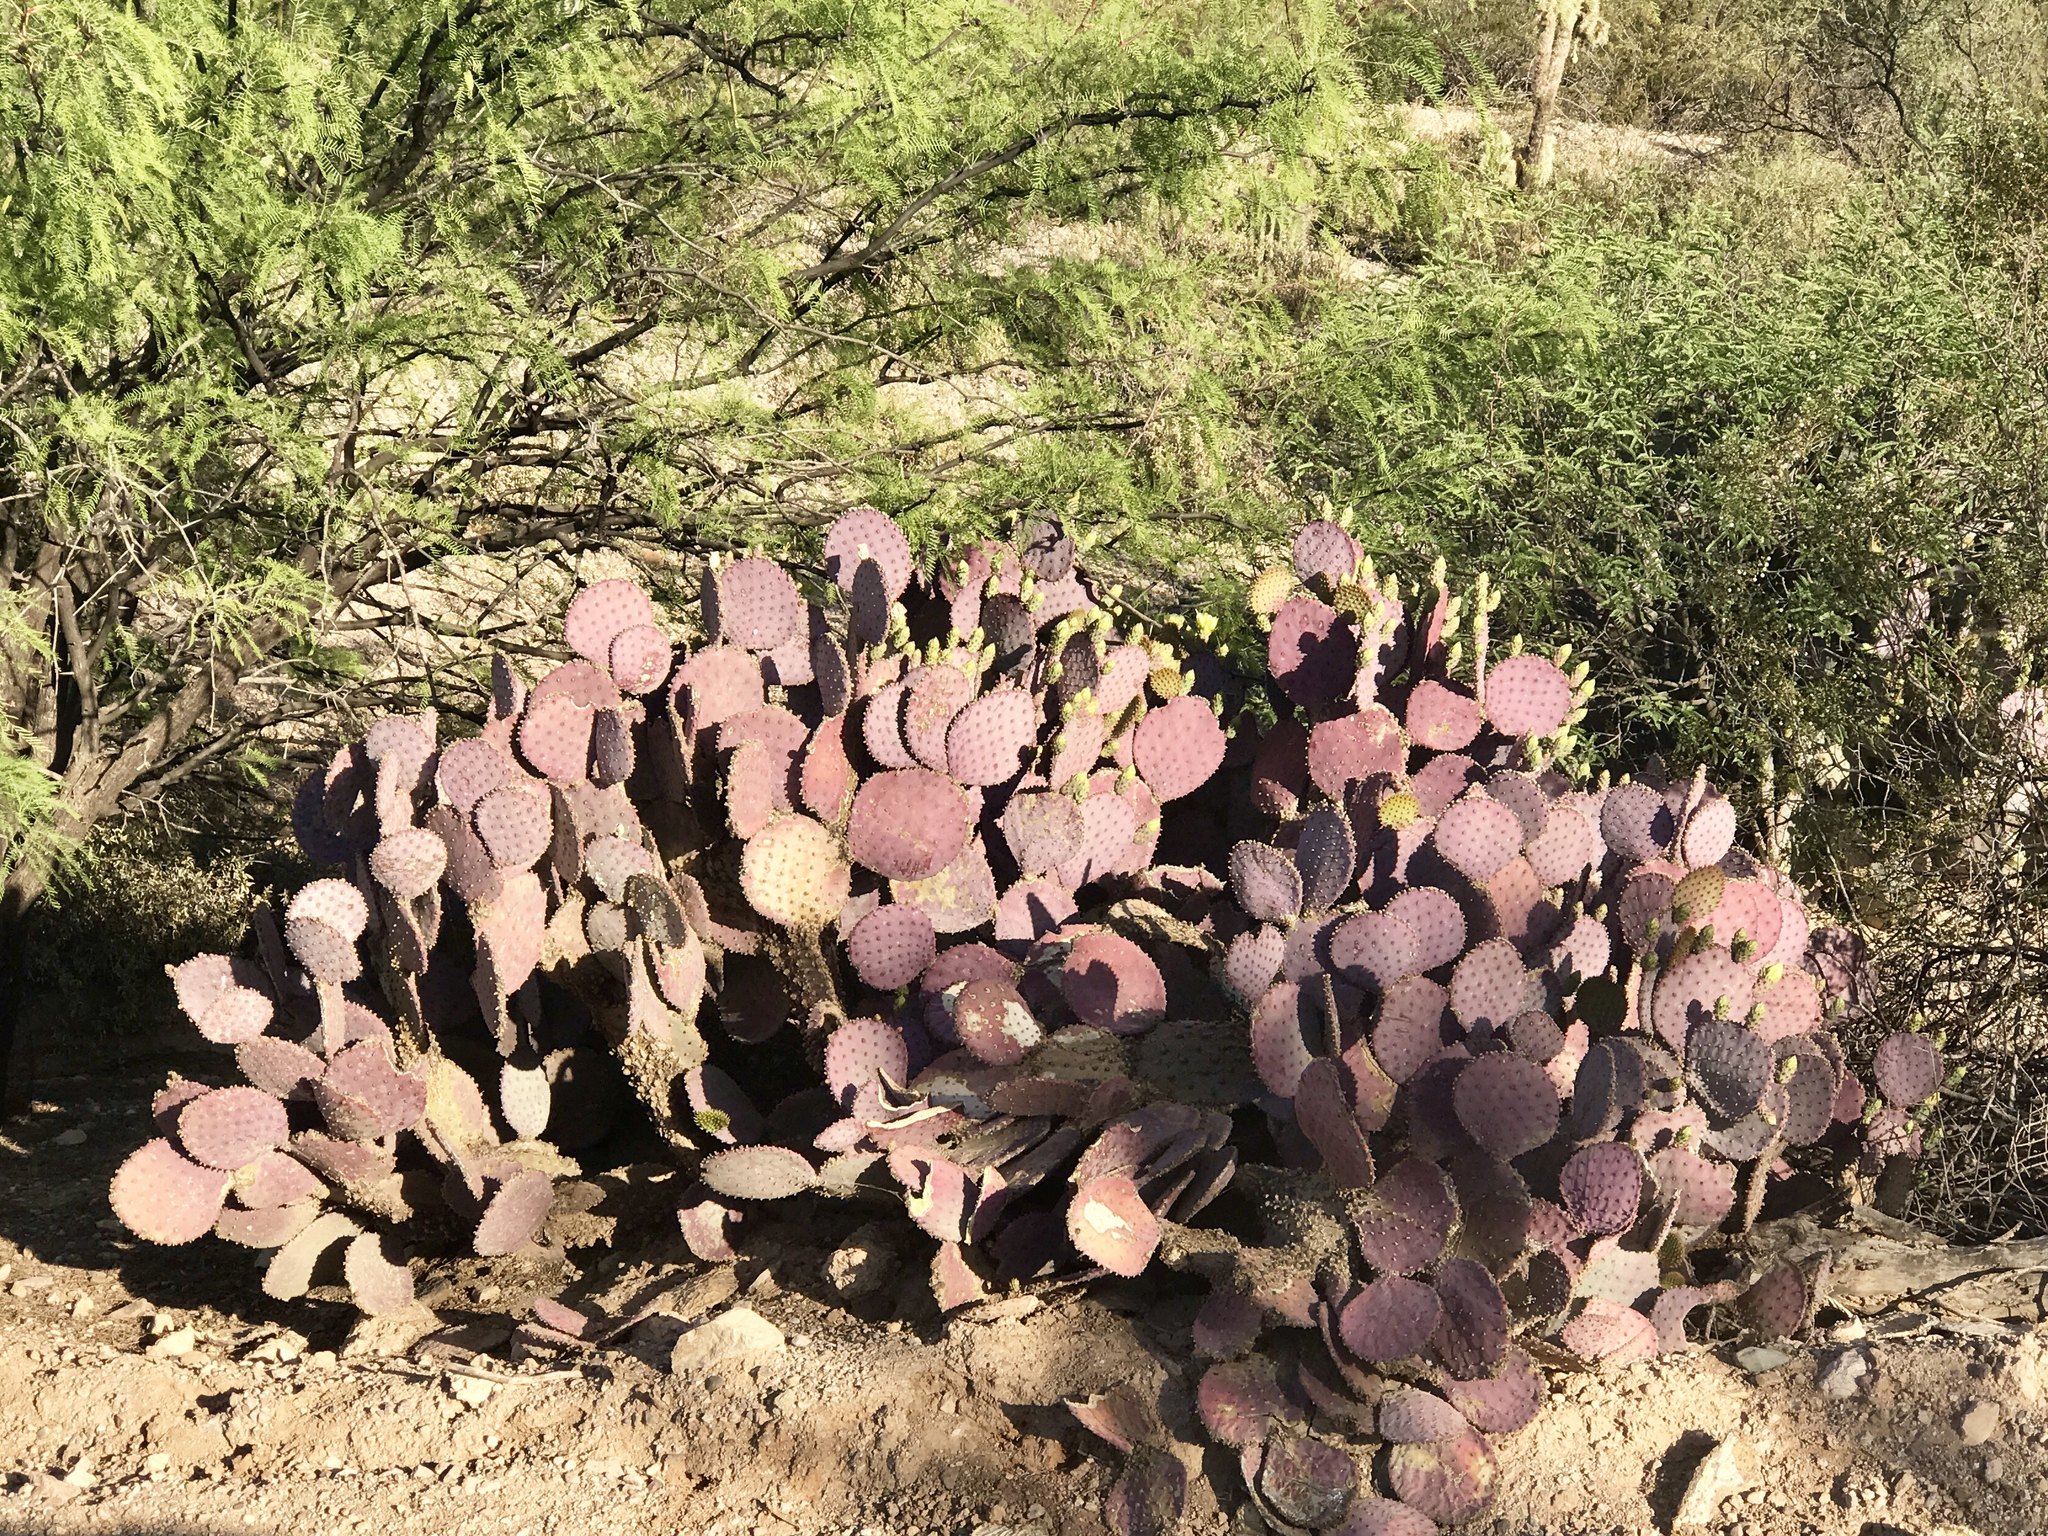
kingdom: Plantae
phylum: Tracheophyta
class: Magnoliopsida
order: Caryophyllales
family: Cactaceae
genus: Opuntia
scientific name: Opuntia gosseliniana
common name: Violet prickly-pear
